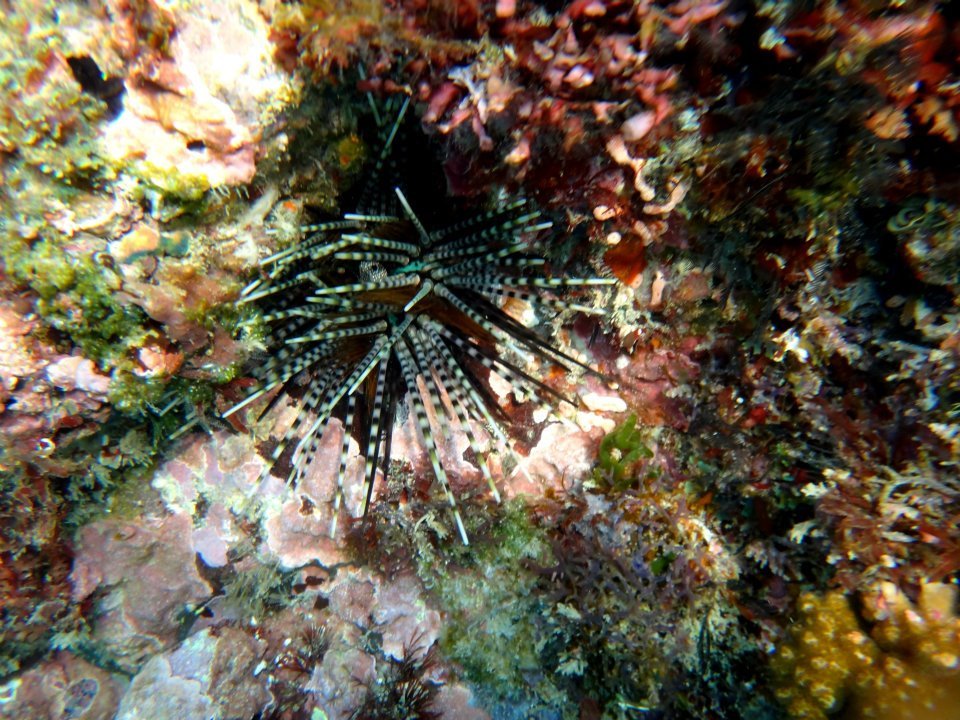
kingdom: Animalia
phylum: Echinodermata
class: Echinoidea
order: Diadematoida
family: Diadematidae
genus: Echinothrix
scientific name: Echinothrix calamaris
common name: Banded sea urchin
